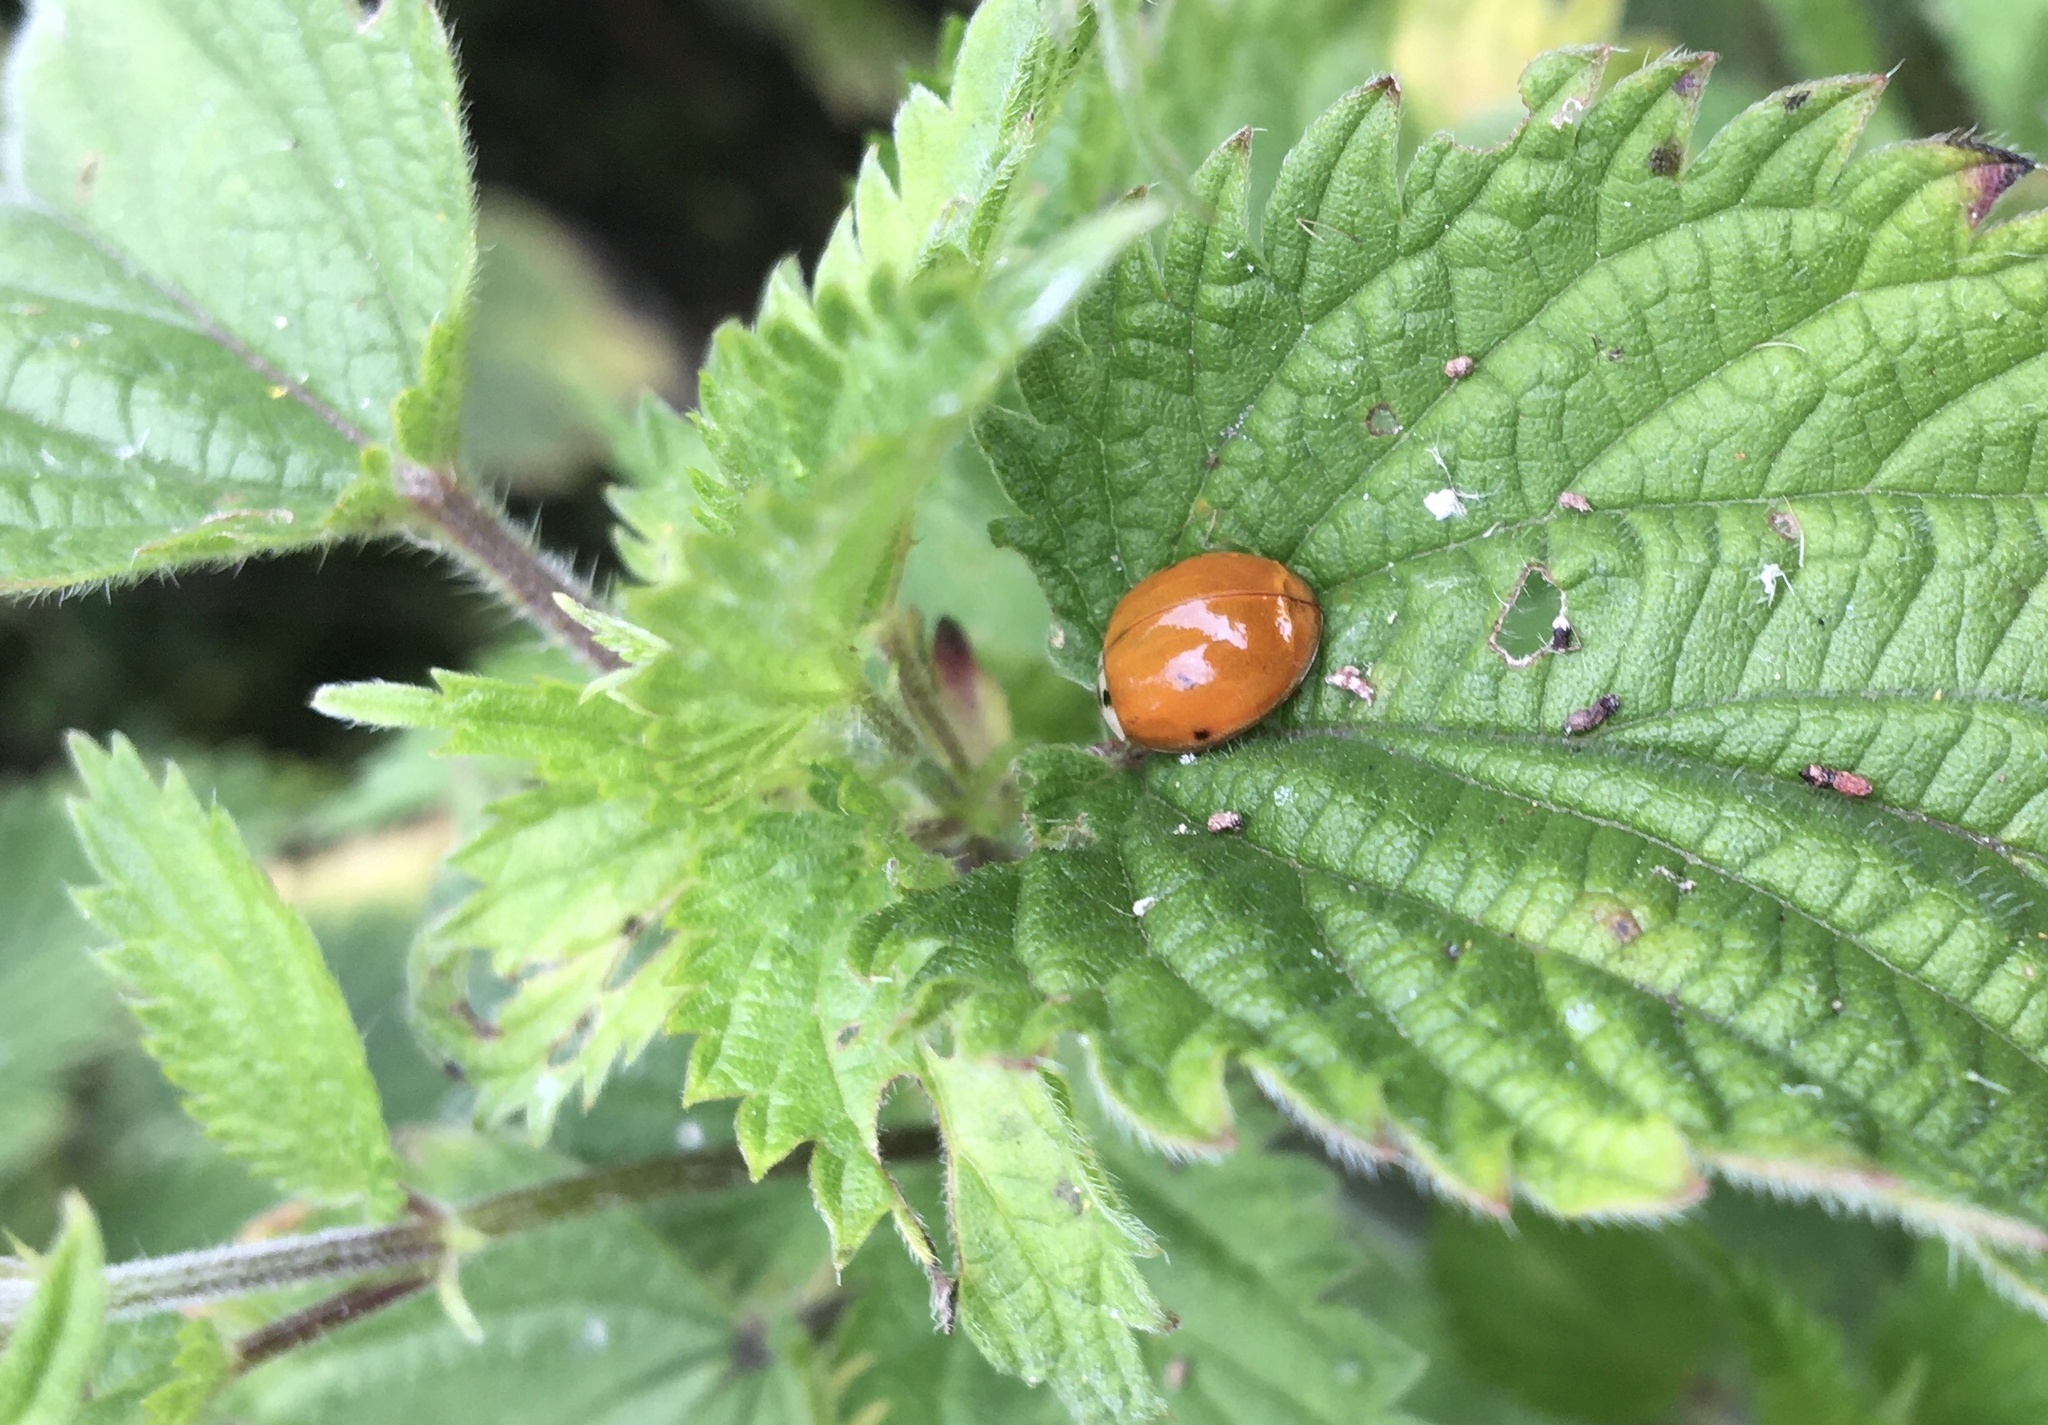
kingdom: Animalia
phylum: Arthropoda
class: Insecta
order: Coleoptera
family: Coccinellidae
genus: Harmonia
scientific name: Harmonia axyridis
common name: Harlequin ladybird
